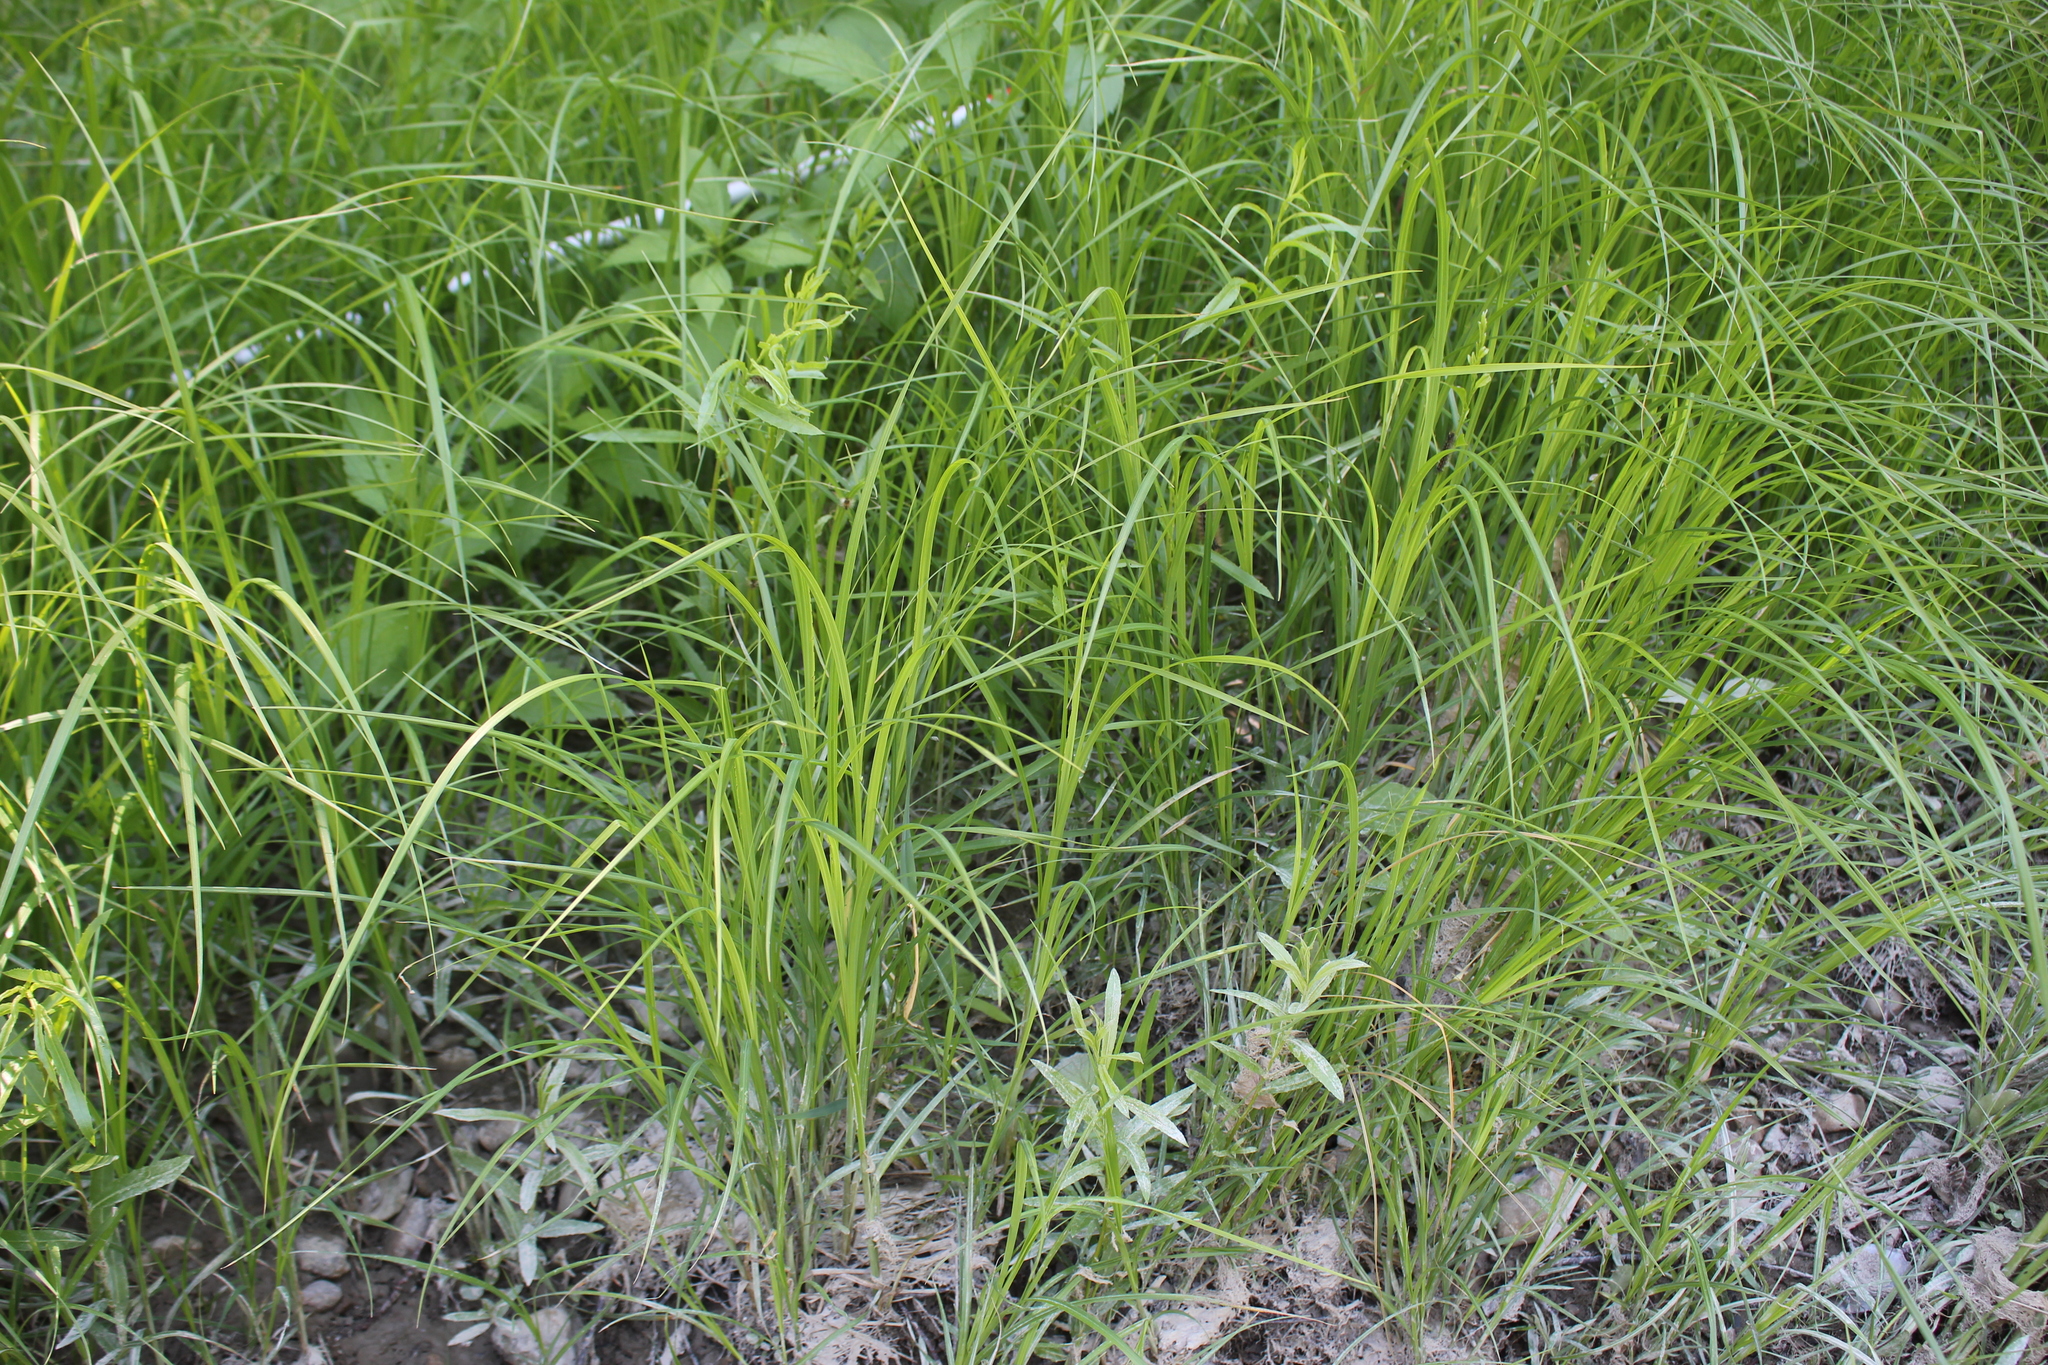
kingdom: Plantae
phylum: Tracheophyta
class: Liliopsida
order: Poales
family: Cyperaceae
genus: Carex
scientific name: Carex emoryi
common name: Emory's sedge
